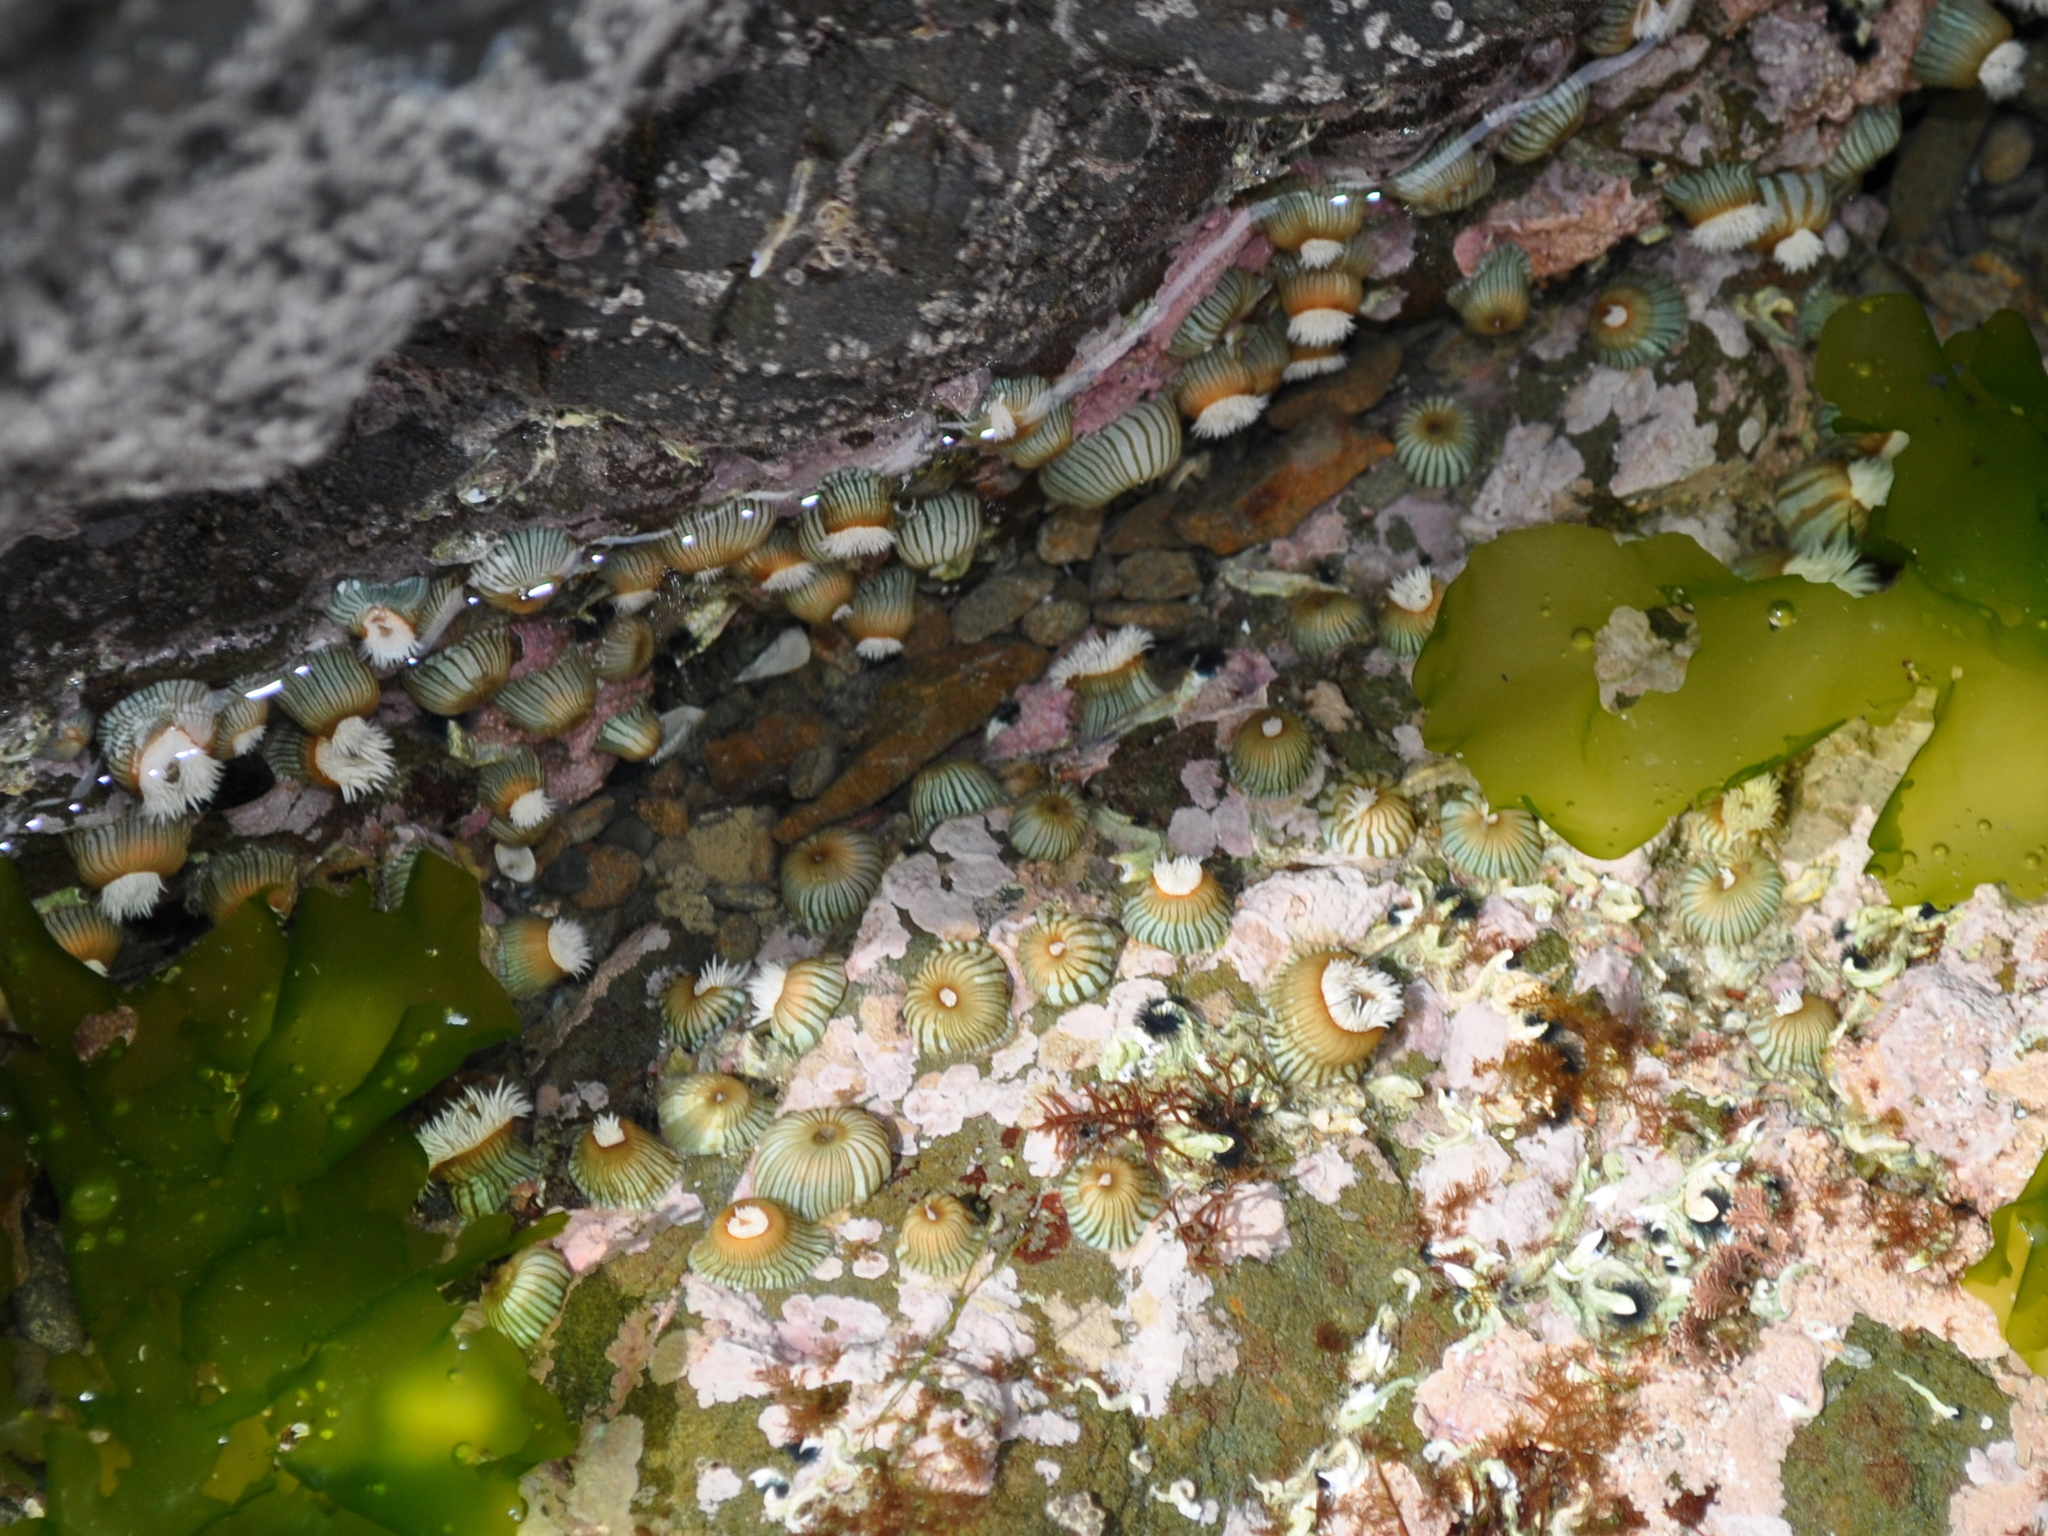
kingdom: Animalia
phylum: Cnidaria
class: Anthozoa
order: Actiniaria
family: Sagartiidae
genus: Anthothoe
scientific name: Anthothoe albocincta
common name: Orange striped anemone
